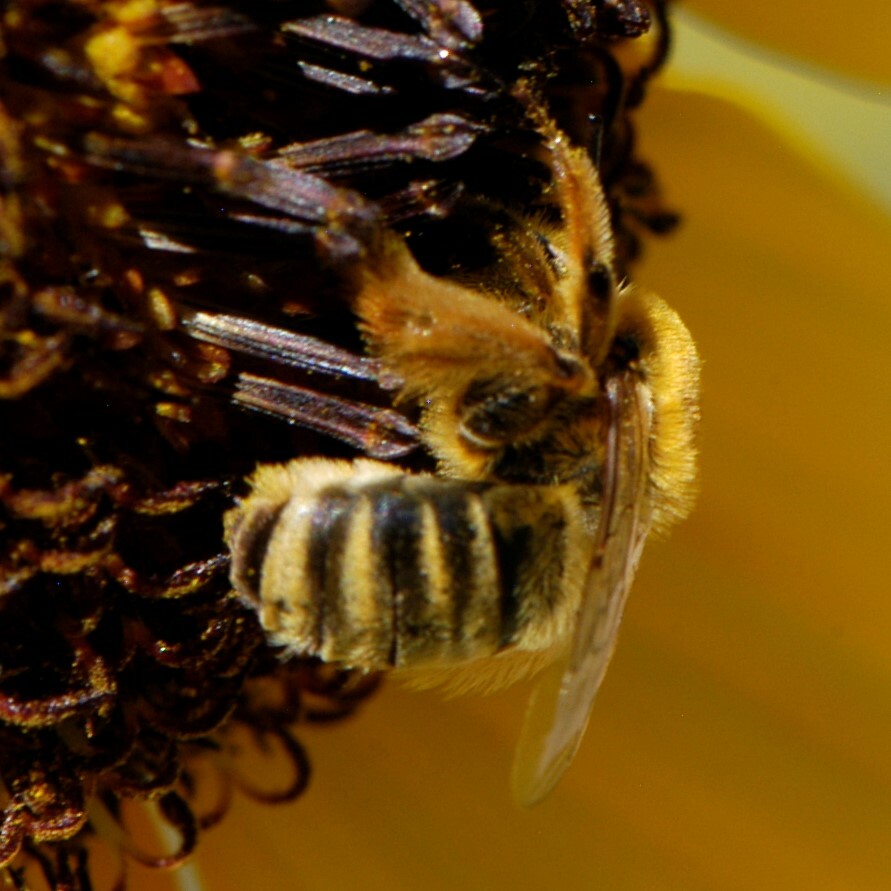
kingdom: Animalia
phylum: Arthropoda
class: Insecta
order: Hymenoptera
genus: Eumelissodes
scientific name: Eumelissodes
